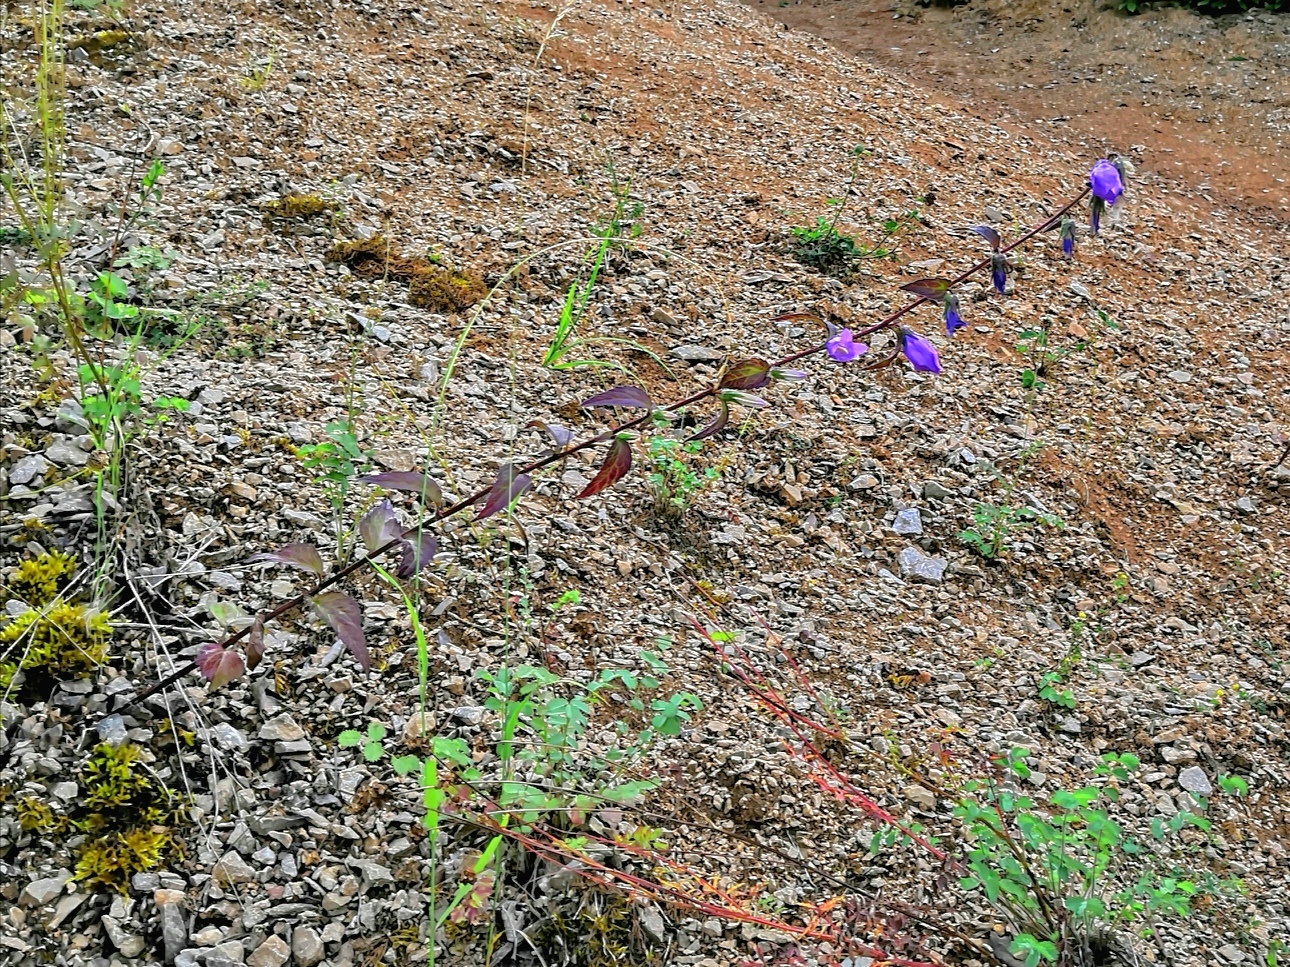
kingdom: Plantae
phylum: Tracheophyta
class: Magnoliopsida
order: Asterales
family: Campanulaceae
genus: Campanula
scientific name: Campanula rapunculoides
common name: Creeping bellflower
